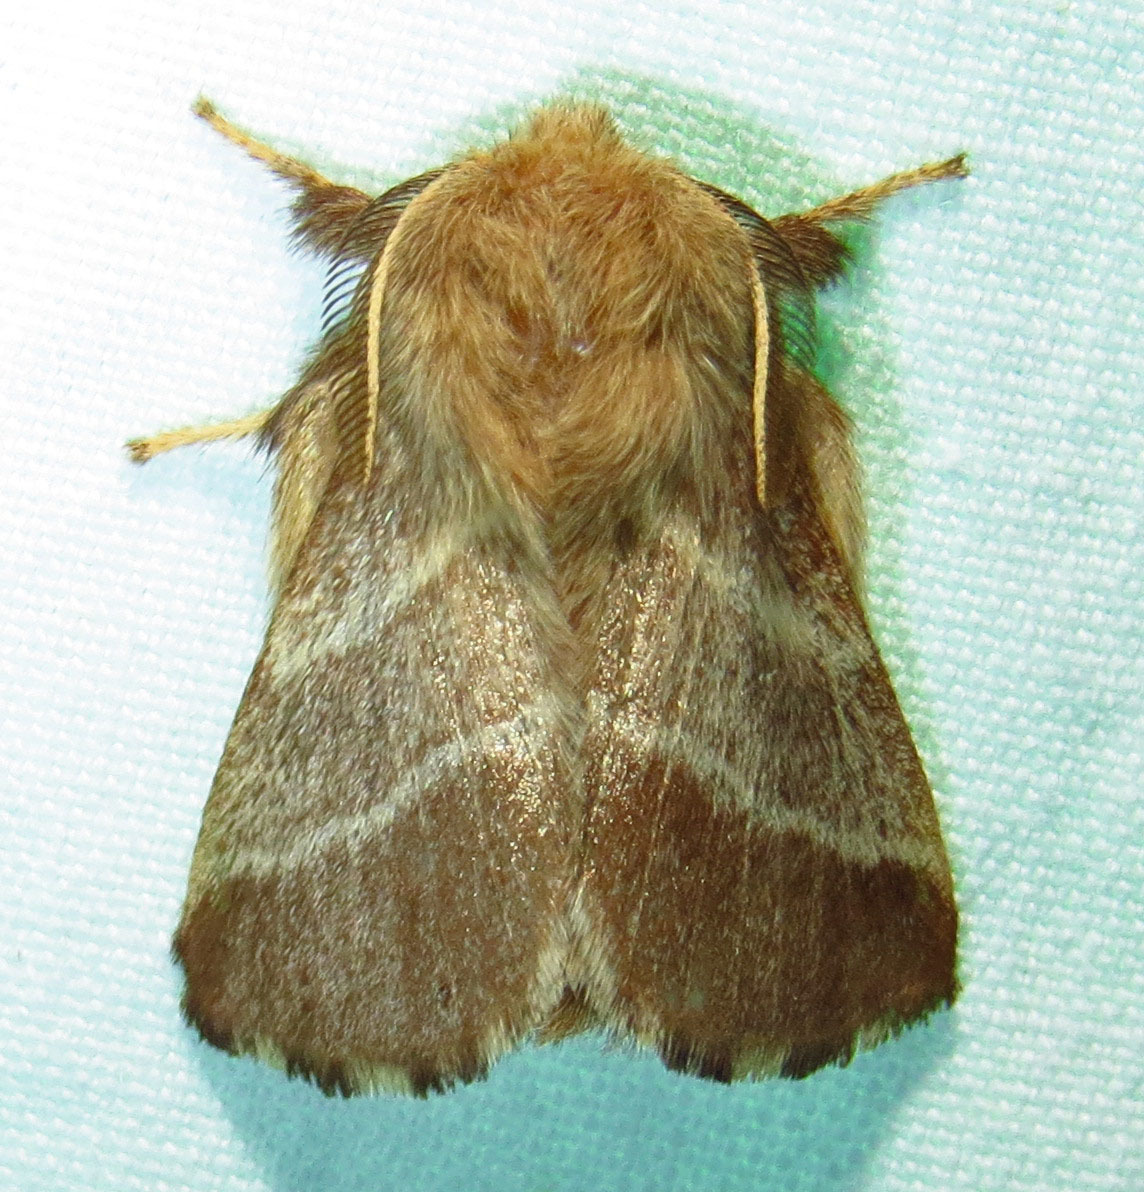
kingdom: Animalia
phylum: Arthropoda
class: Insecta
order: Lepidoptera
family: Lasiocampidae
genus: Malacosoma
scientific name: Malacosoma americana
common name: Eastern tent caterpillar moth
